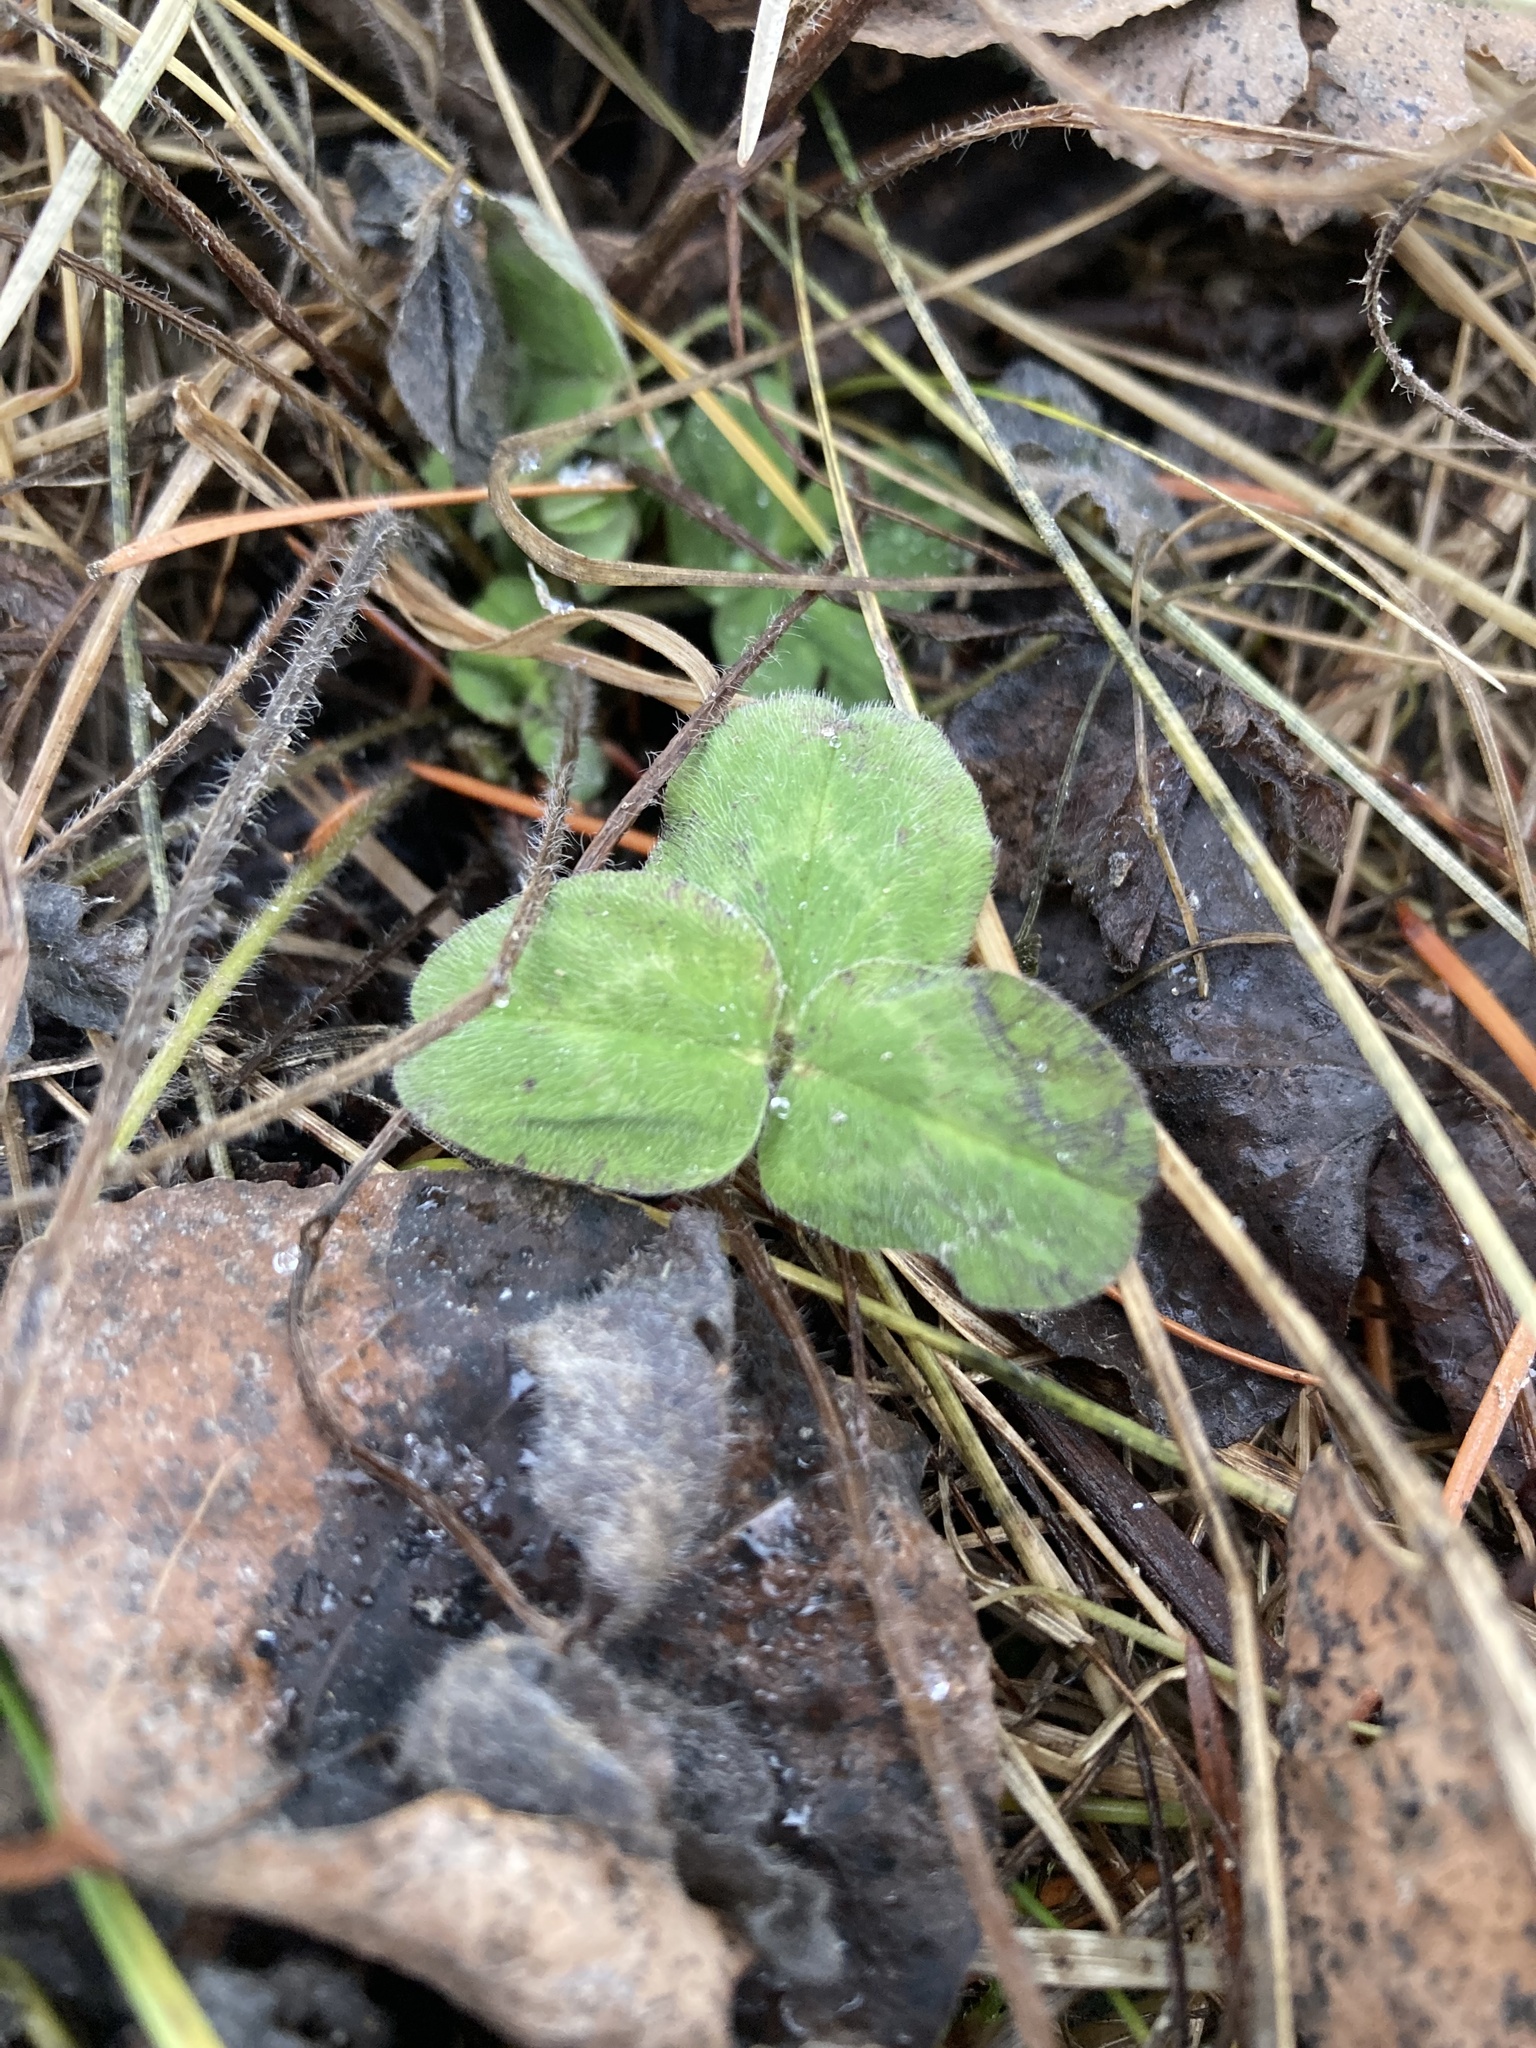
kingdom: Plantae
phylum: Tracheophyta
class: Magnoliopsida
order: Fabales
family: Fabaceae
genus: Trifolium
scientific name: Trifolium pratense
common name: Red clover
